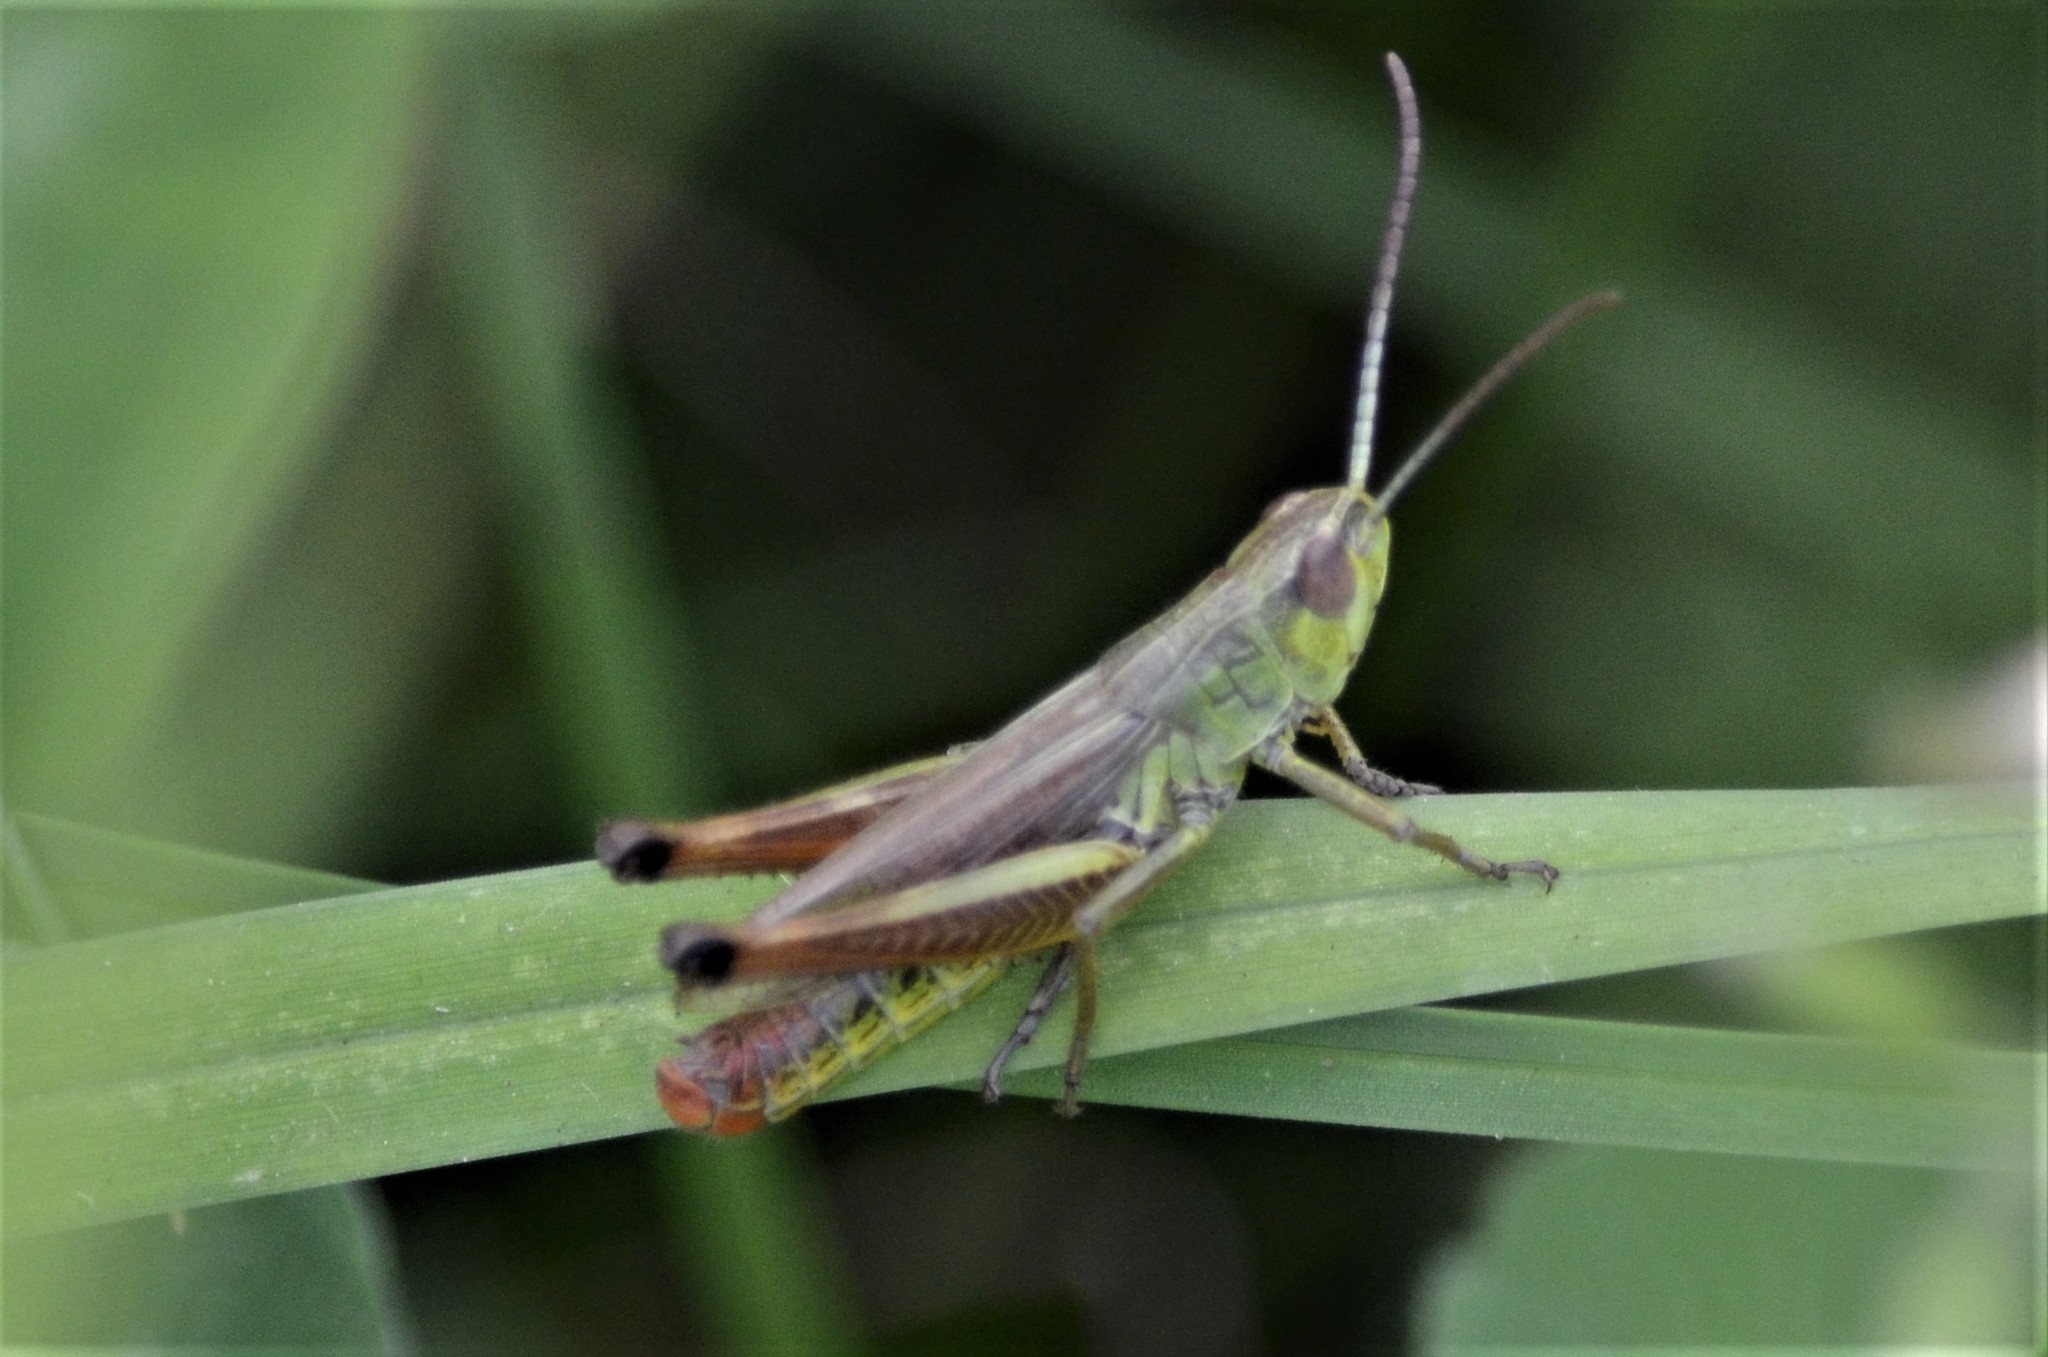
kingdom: Animalia
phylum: Arthropoda
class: Insecta
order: Orthoptera
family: Acrididae
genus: Pseudochorthippus
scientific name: Pseudochorthippus parallelus
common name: Meadow grasshopper
